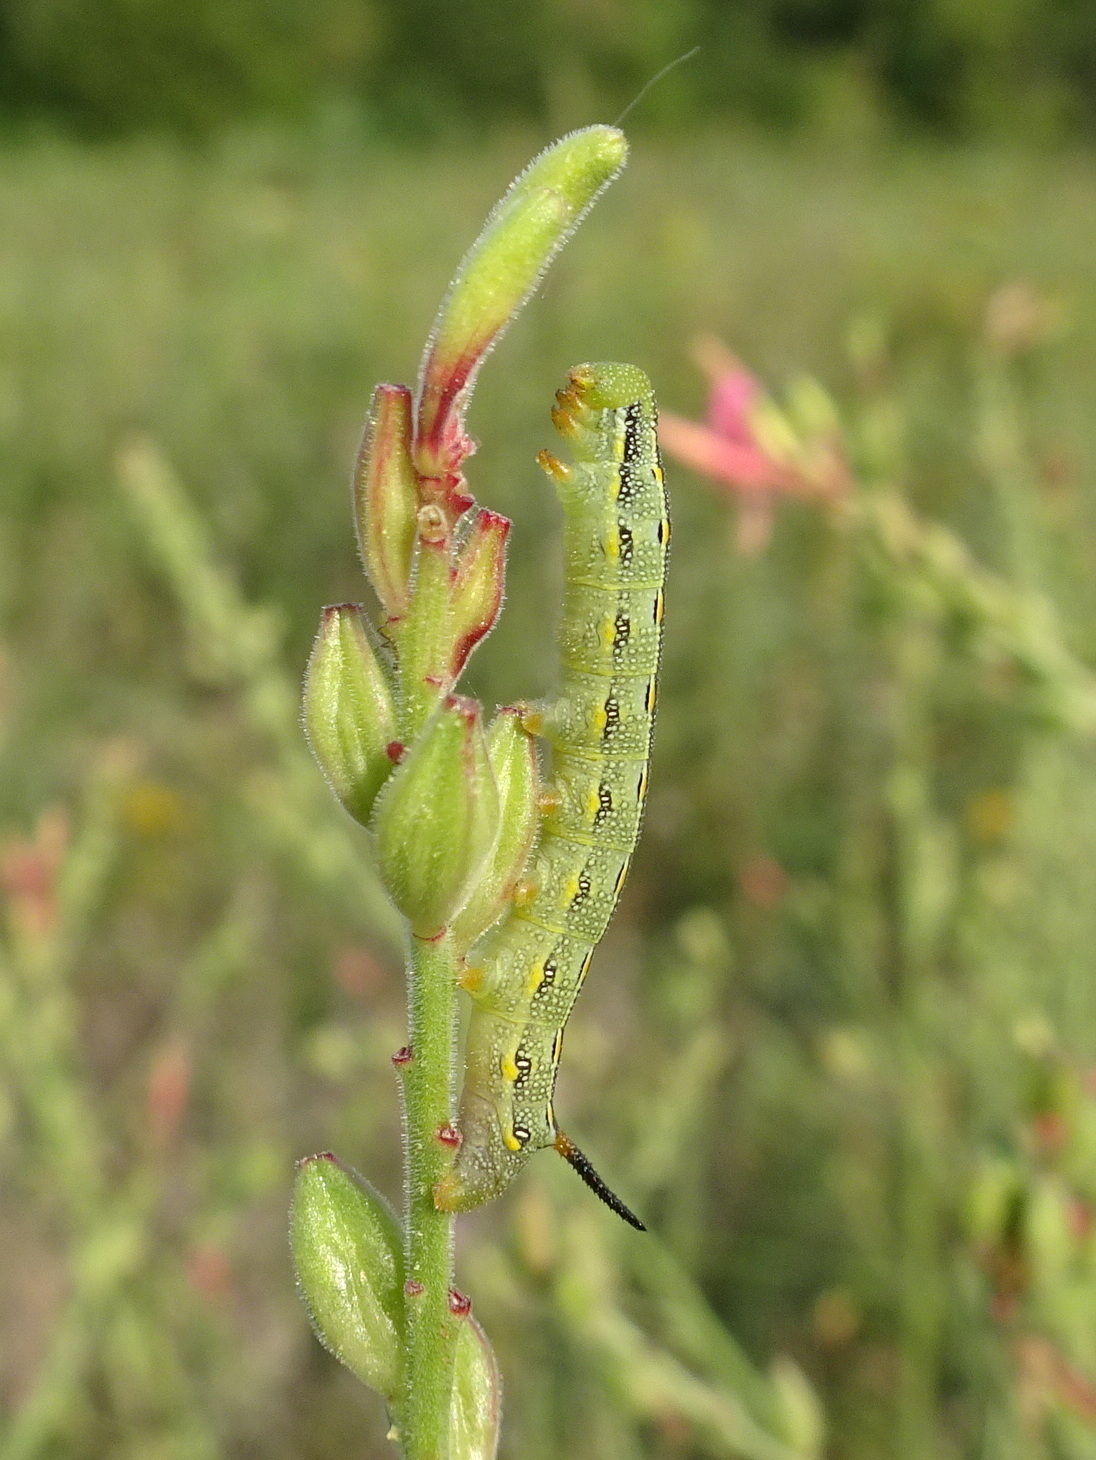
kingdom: Animalia
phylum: Arthropoda
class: Insecta
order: Lepidoptera
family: Sphingidae
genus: Hyles
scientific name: Hyles lineata
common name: White-lined sphinx
